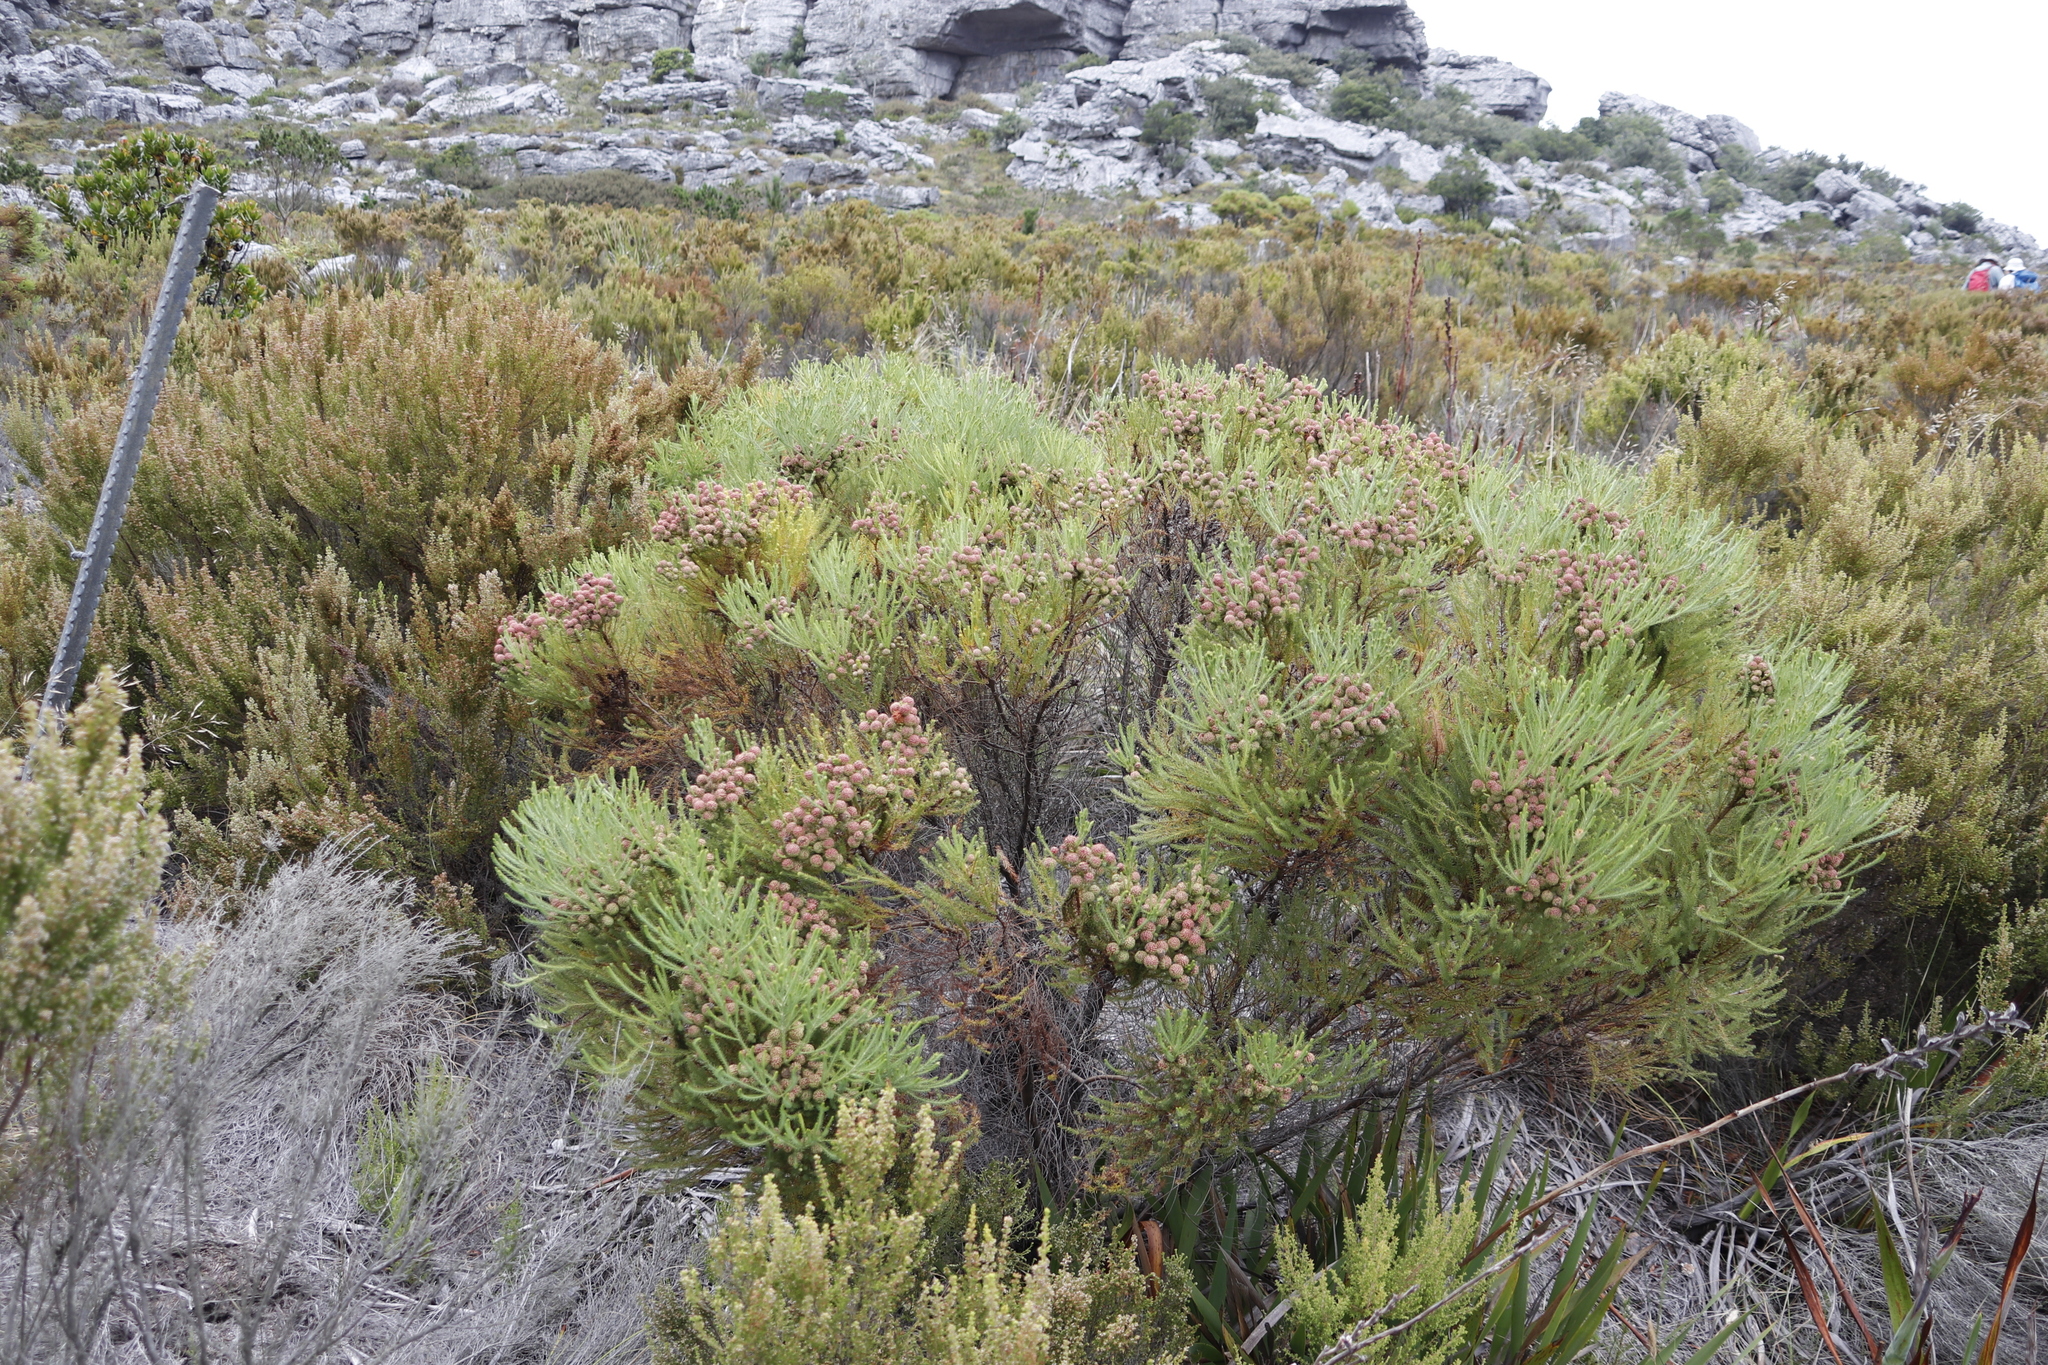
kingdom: Plantae
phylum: Tracheophyta
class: Magnoliopsida
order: Bruniales
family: Bruniaceae
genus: Berzelia
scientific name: Berzelia lanuginosa
